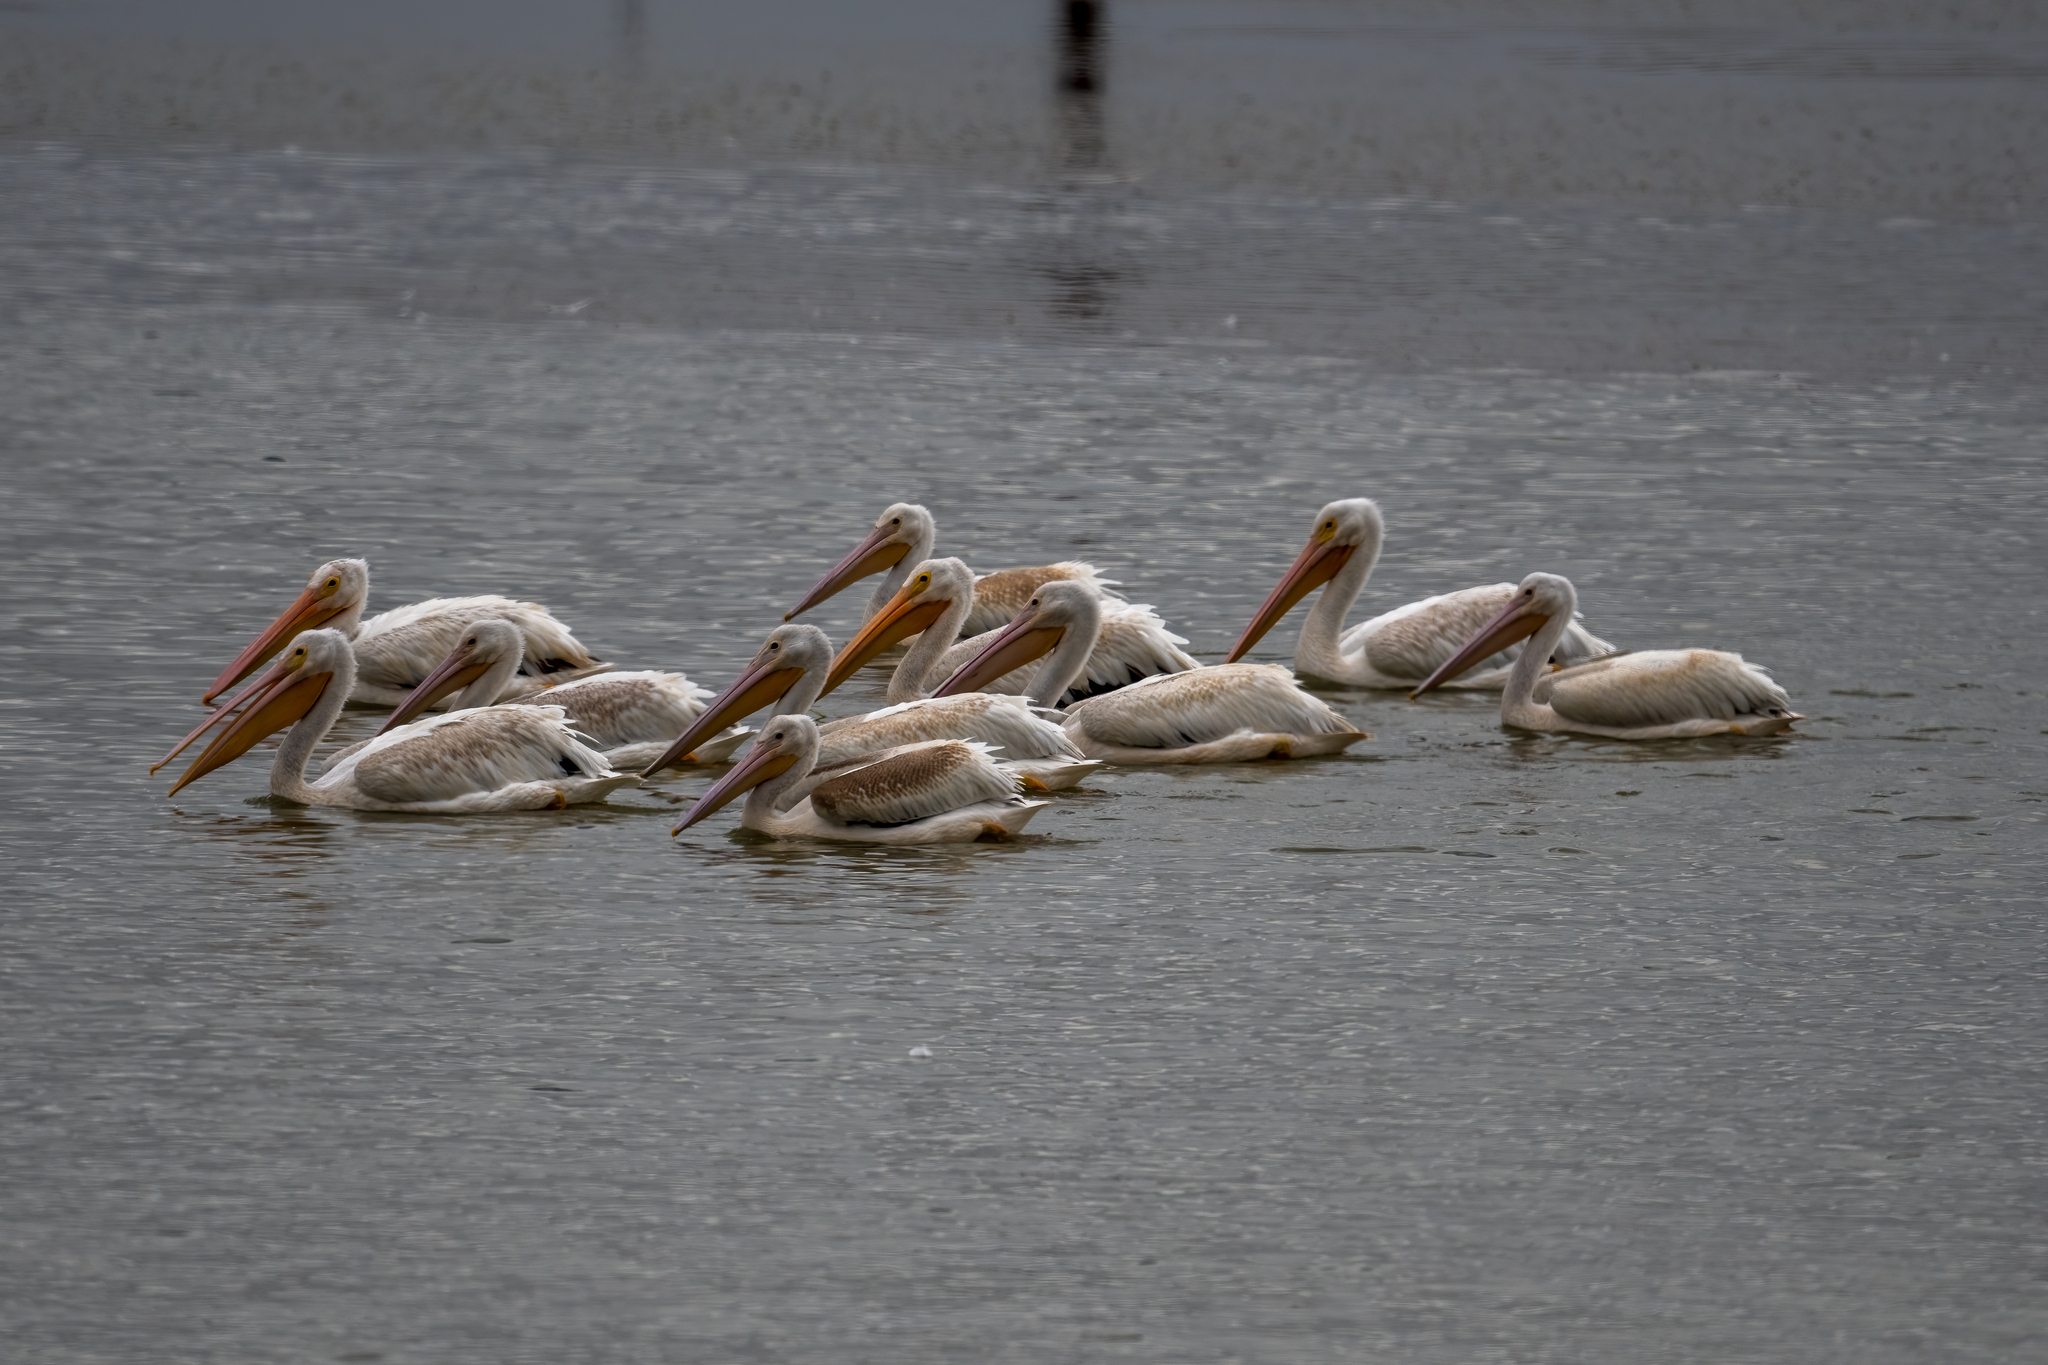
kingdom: Animalia
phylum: Chordata
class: Aves
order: Pelecaniformes
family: Pelecanidae
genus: Pelecanus
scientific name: Pelecanus erythrorhynchos
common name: American white pelican
